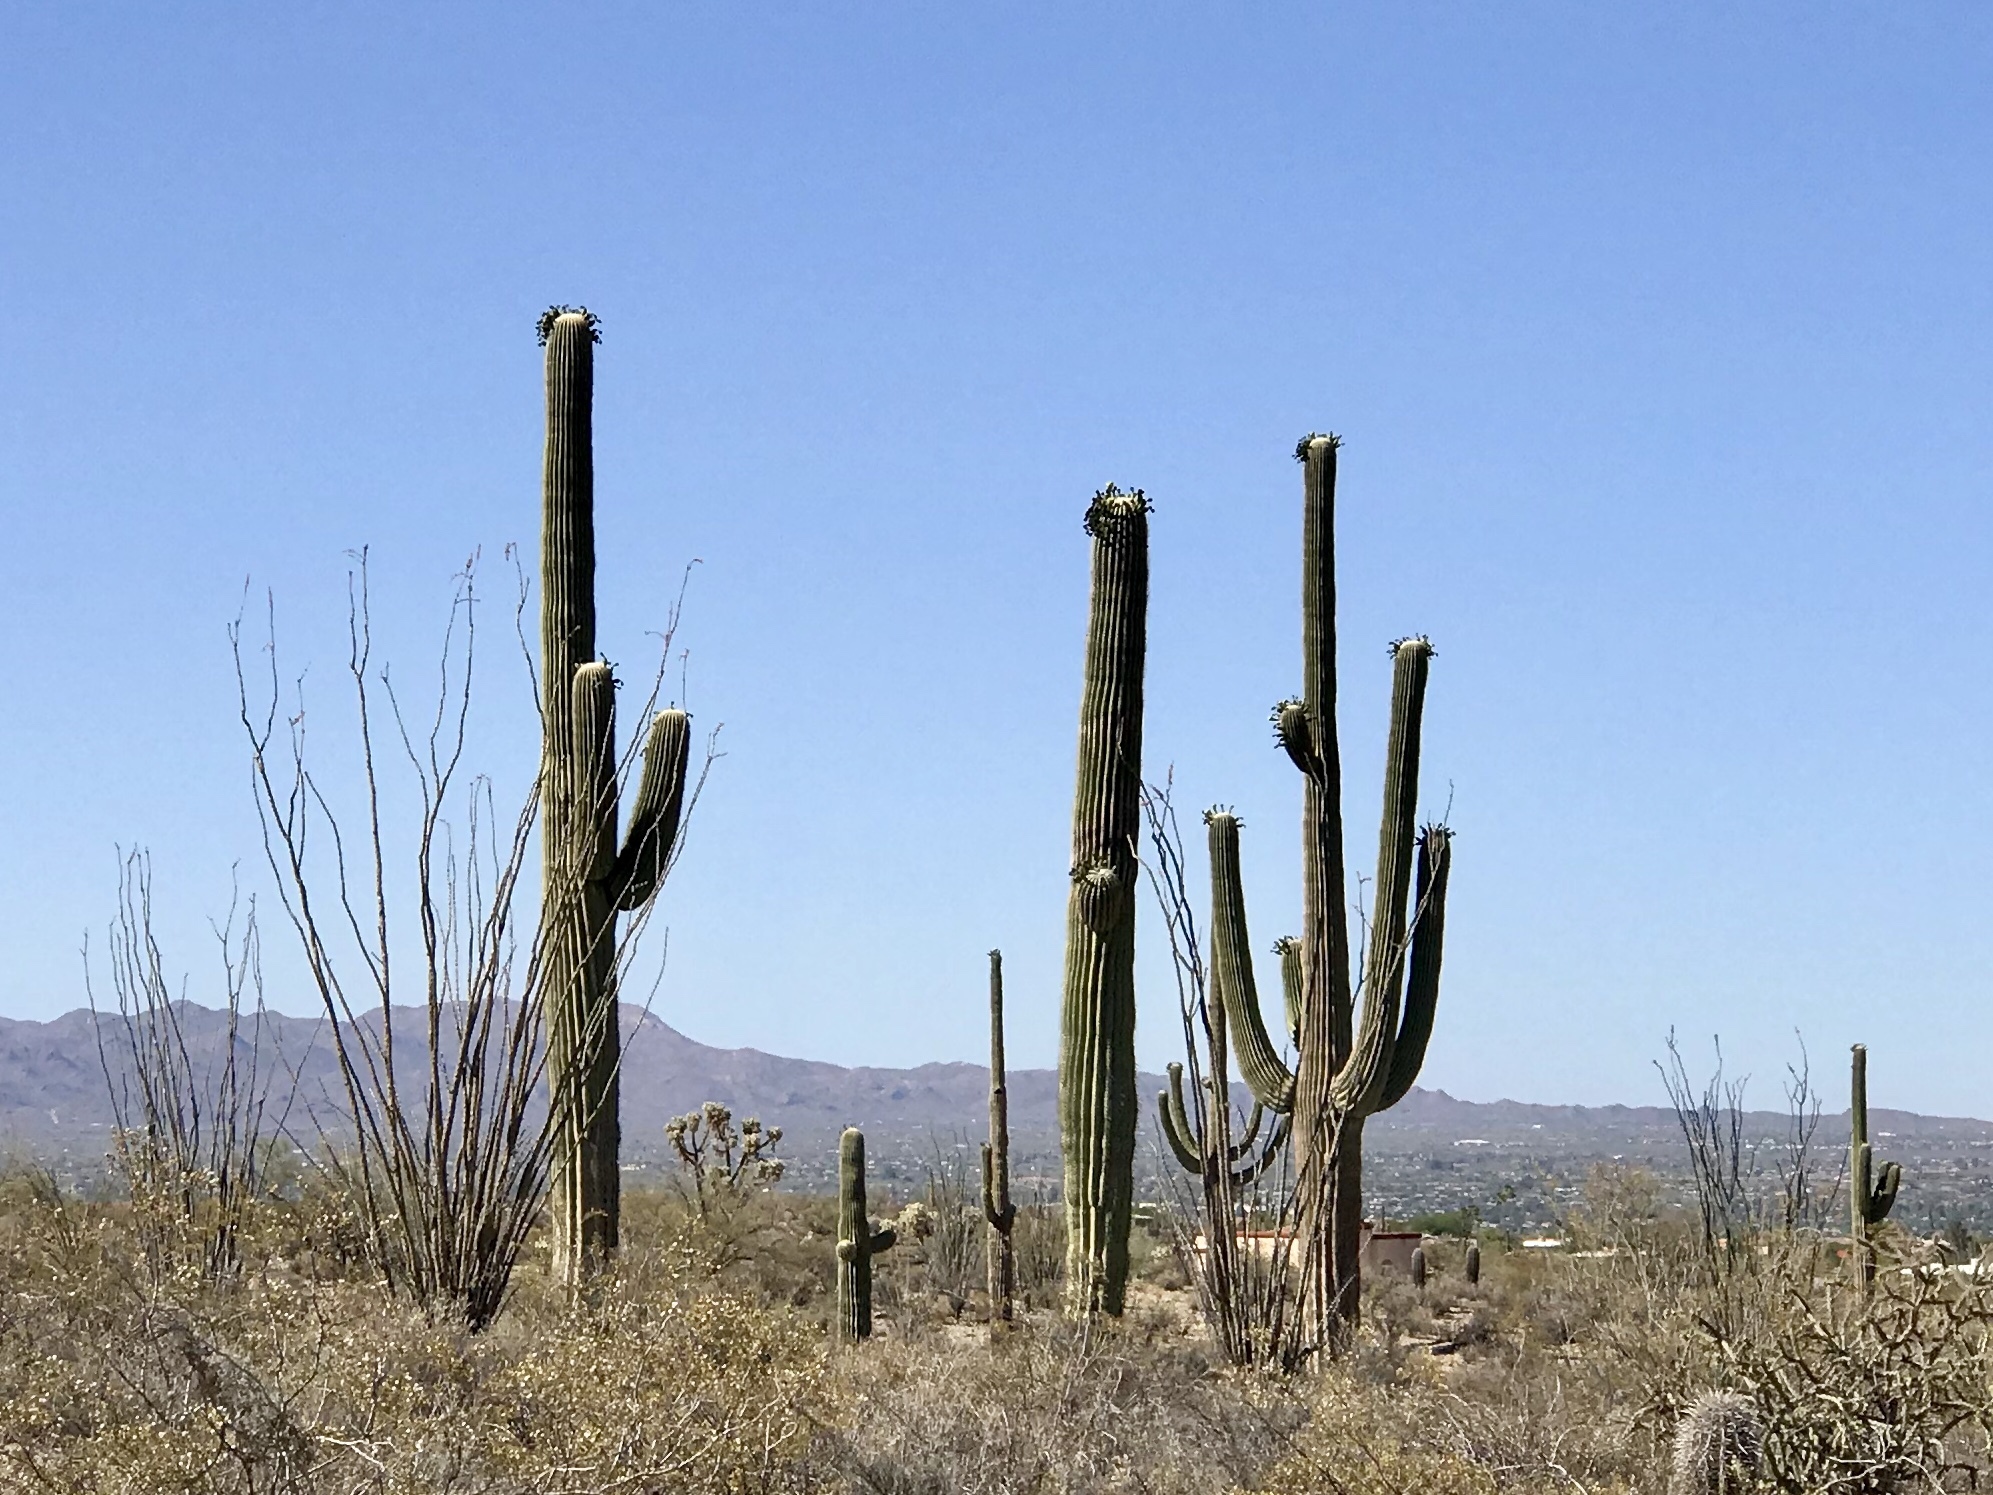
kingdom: Plantae
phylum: Tracheophyta
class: Magnoliopsida
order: Caryophyllales
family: Cactaceae
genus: Carnegiea
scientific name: Carnegiea gigantea
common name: Saguaro
